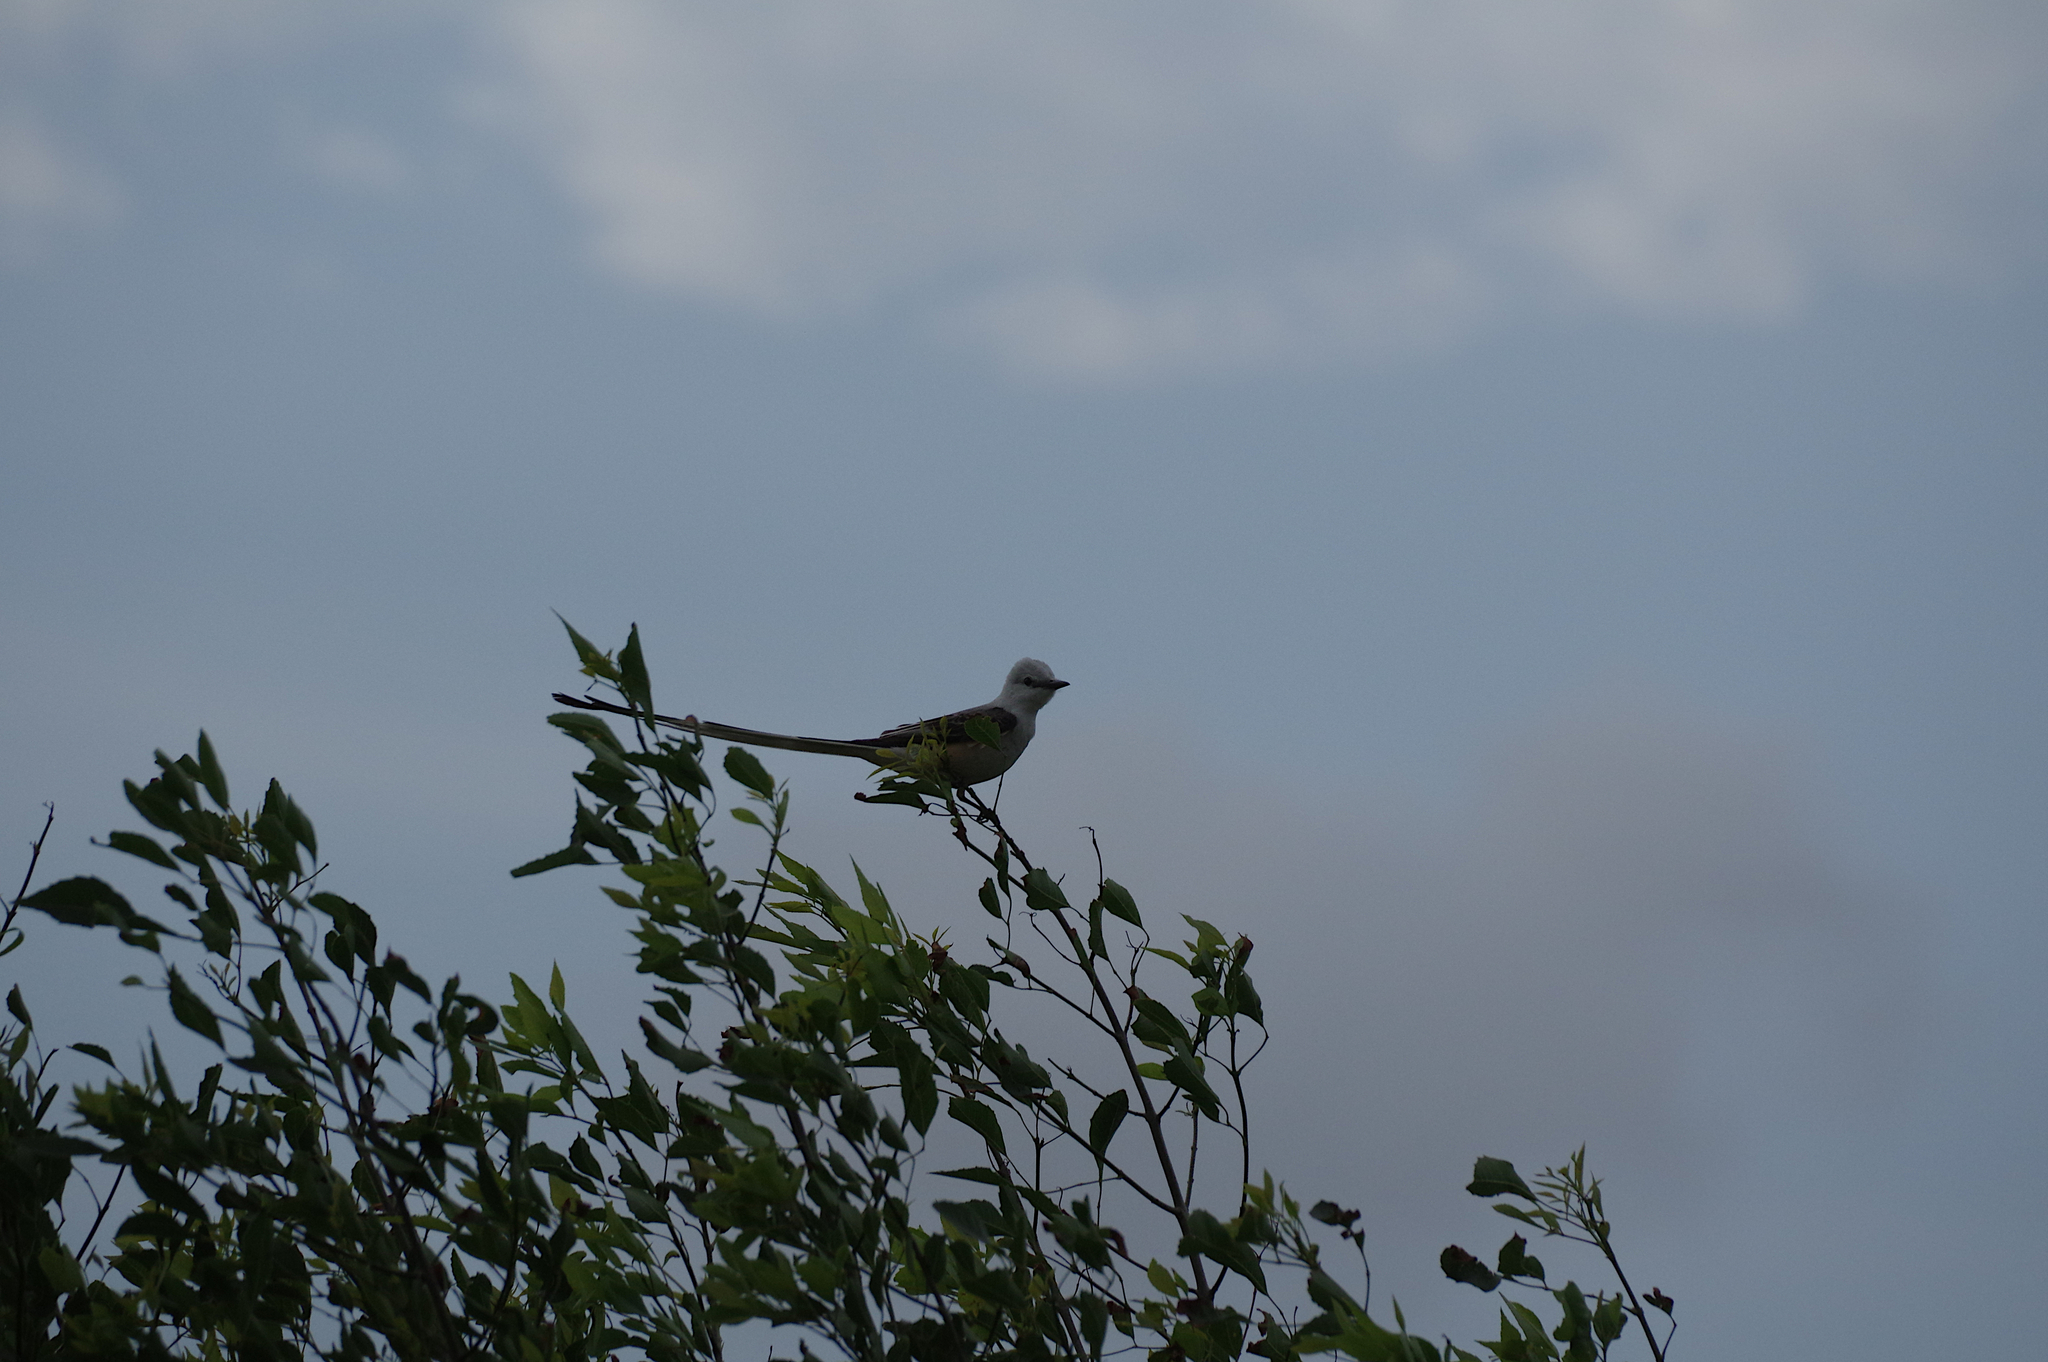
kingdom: Animalia
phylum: Chordata
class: Aves
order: Passeriformes
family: Tyrannidae
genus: Tyrannus
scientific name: Tyrannus forficatus
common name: Scissor-tailed flycatcher
